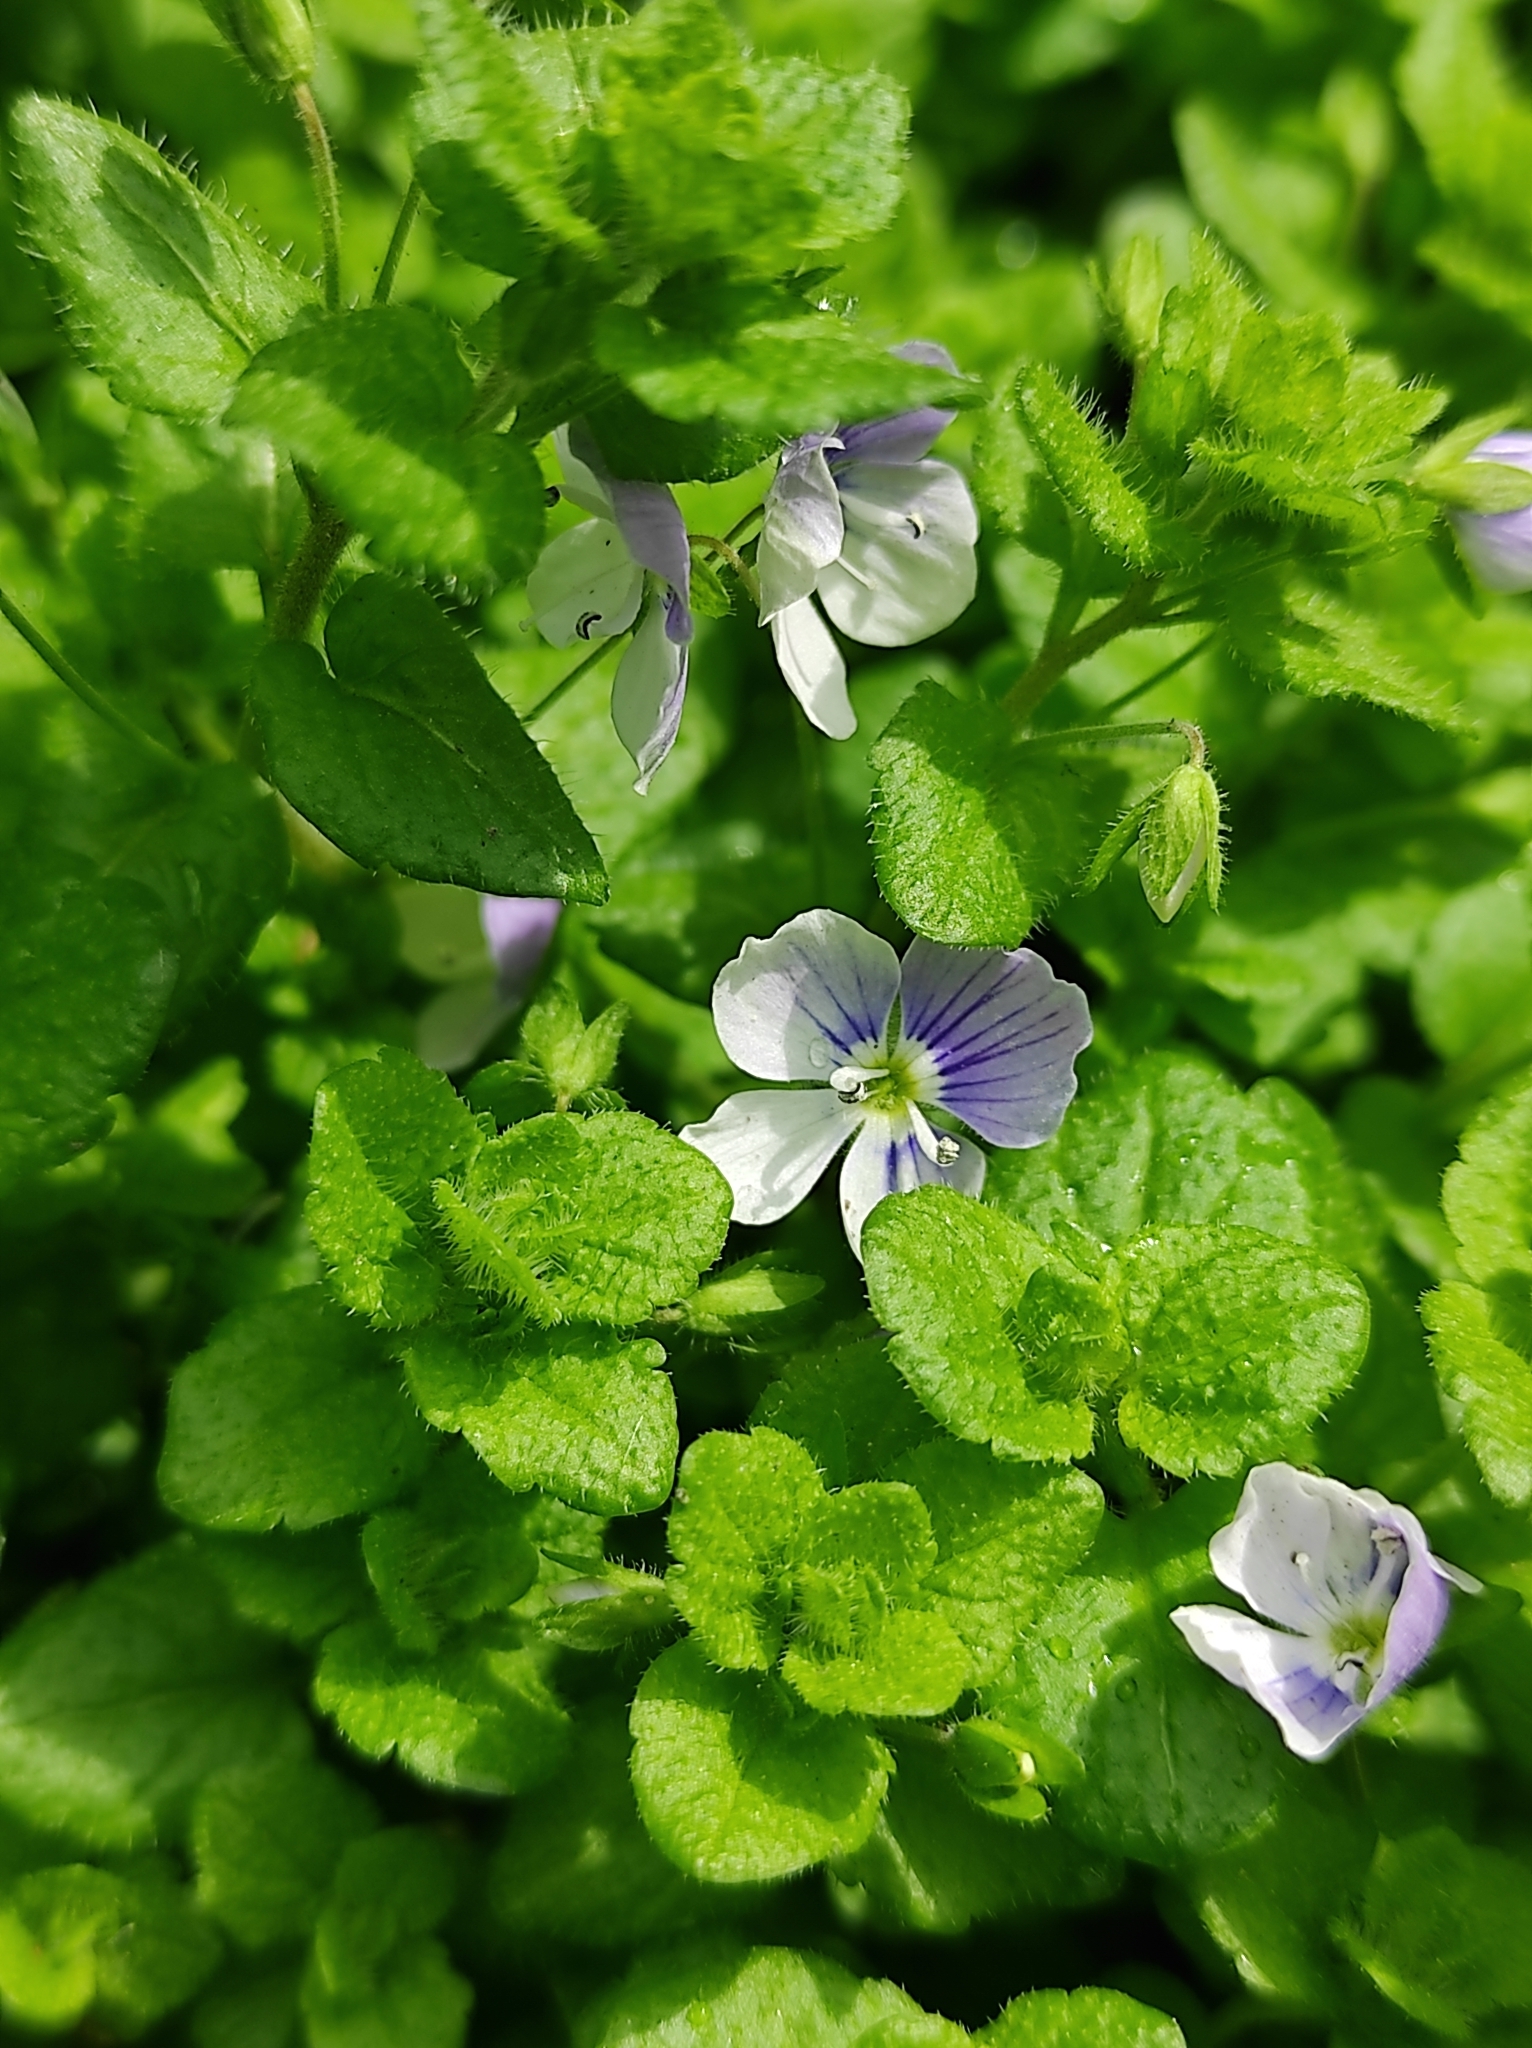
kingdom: Plantae
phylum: Tracheophyta
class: Magnoliopsida
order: Lamiales
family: Plantaginaceae
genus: Veronica
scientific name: Veronica filiformis
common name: Slender speedwell
